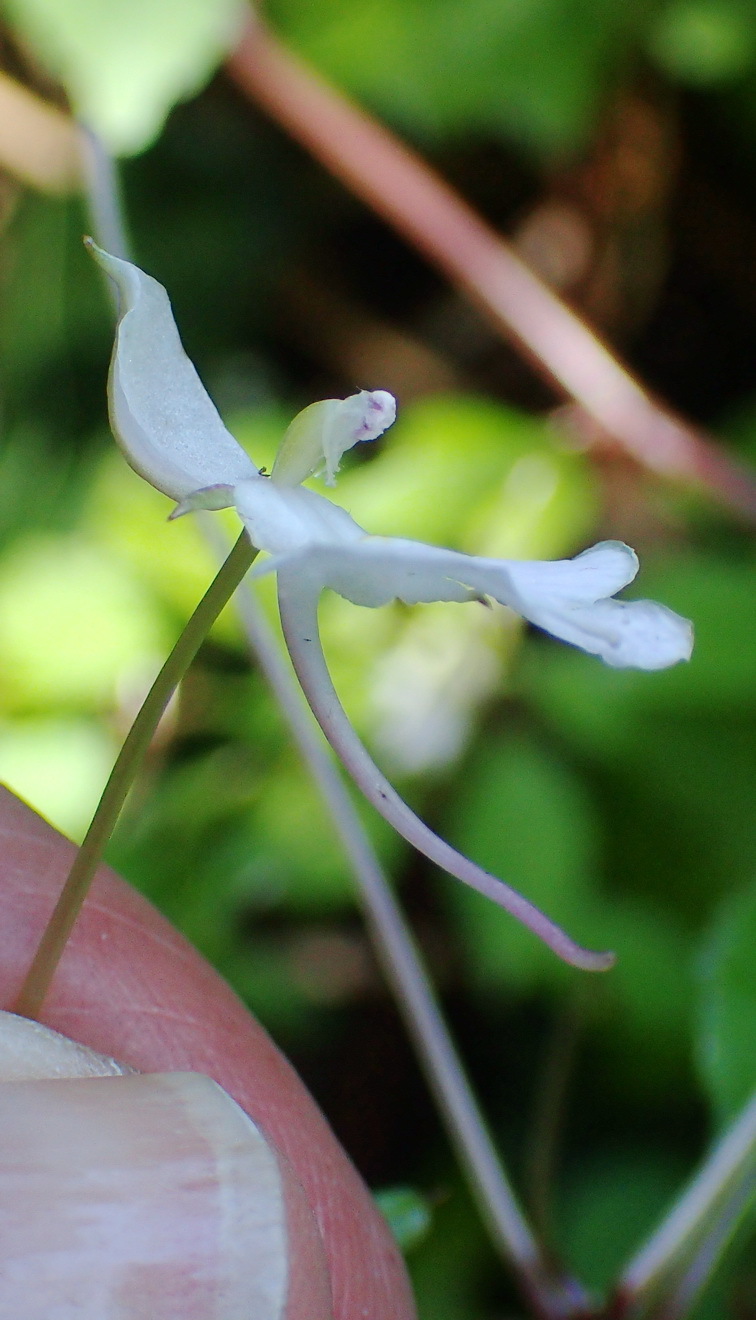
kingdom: Plantae
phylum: Tracheophyta
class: Magnoliopsida
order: Ericales
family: Balsaminaceae
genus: Impatiens
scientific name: Impatiens hochstetteri
